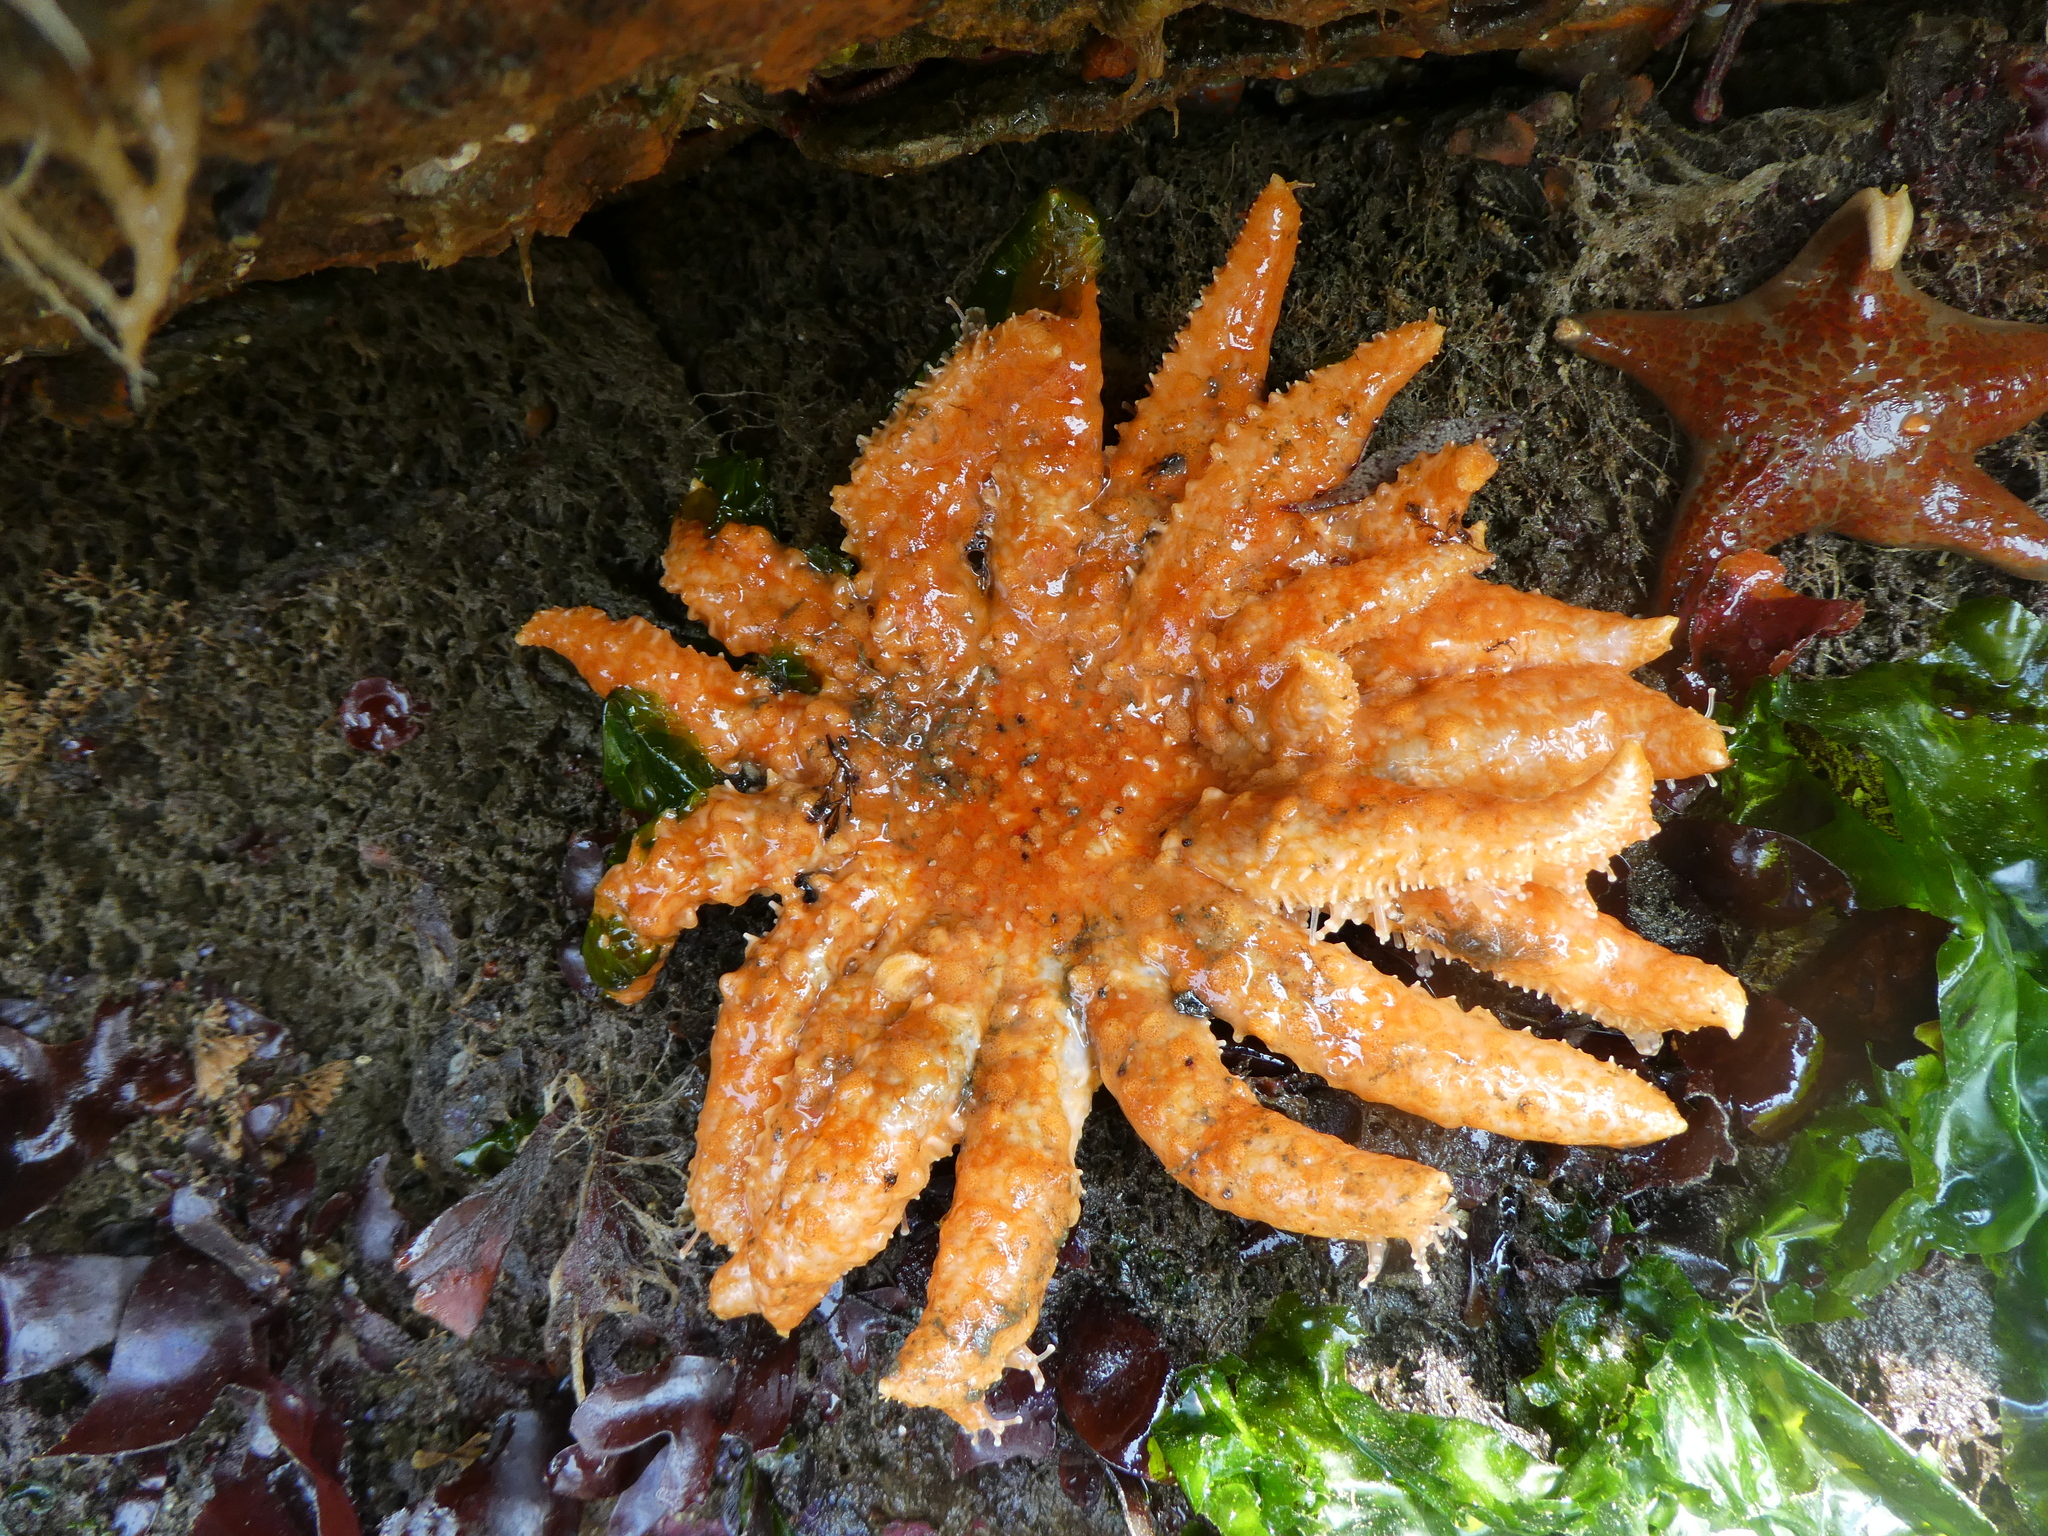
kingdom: Animalia
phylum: Echinodermata
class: Asteroidea
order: Forcipulatida
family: Asteriidae
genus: Pycnopodia
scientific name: Pycnopodia helianthoides
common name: Rag mop
